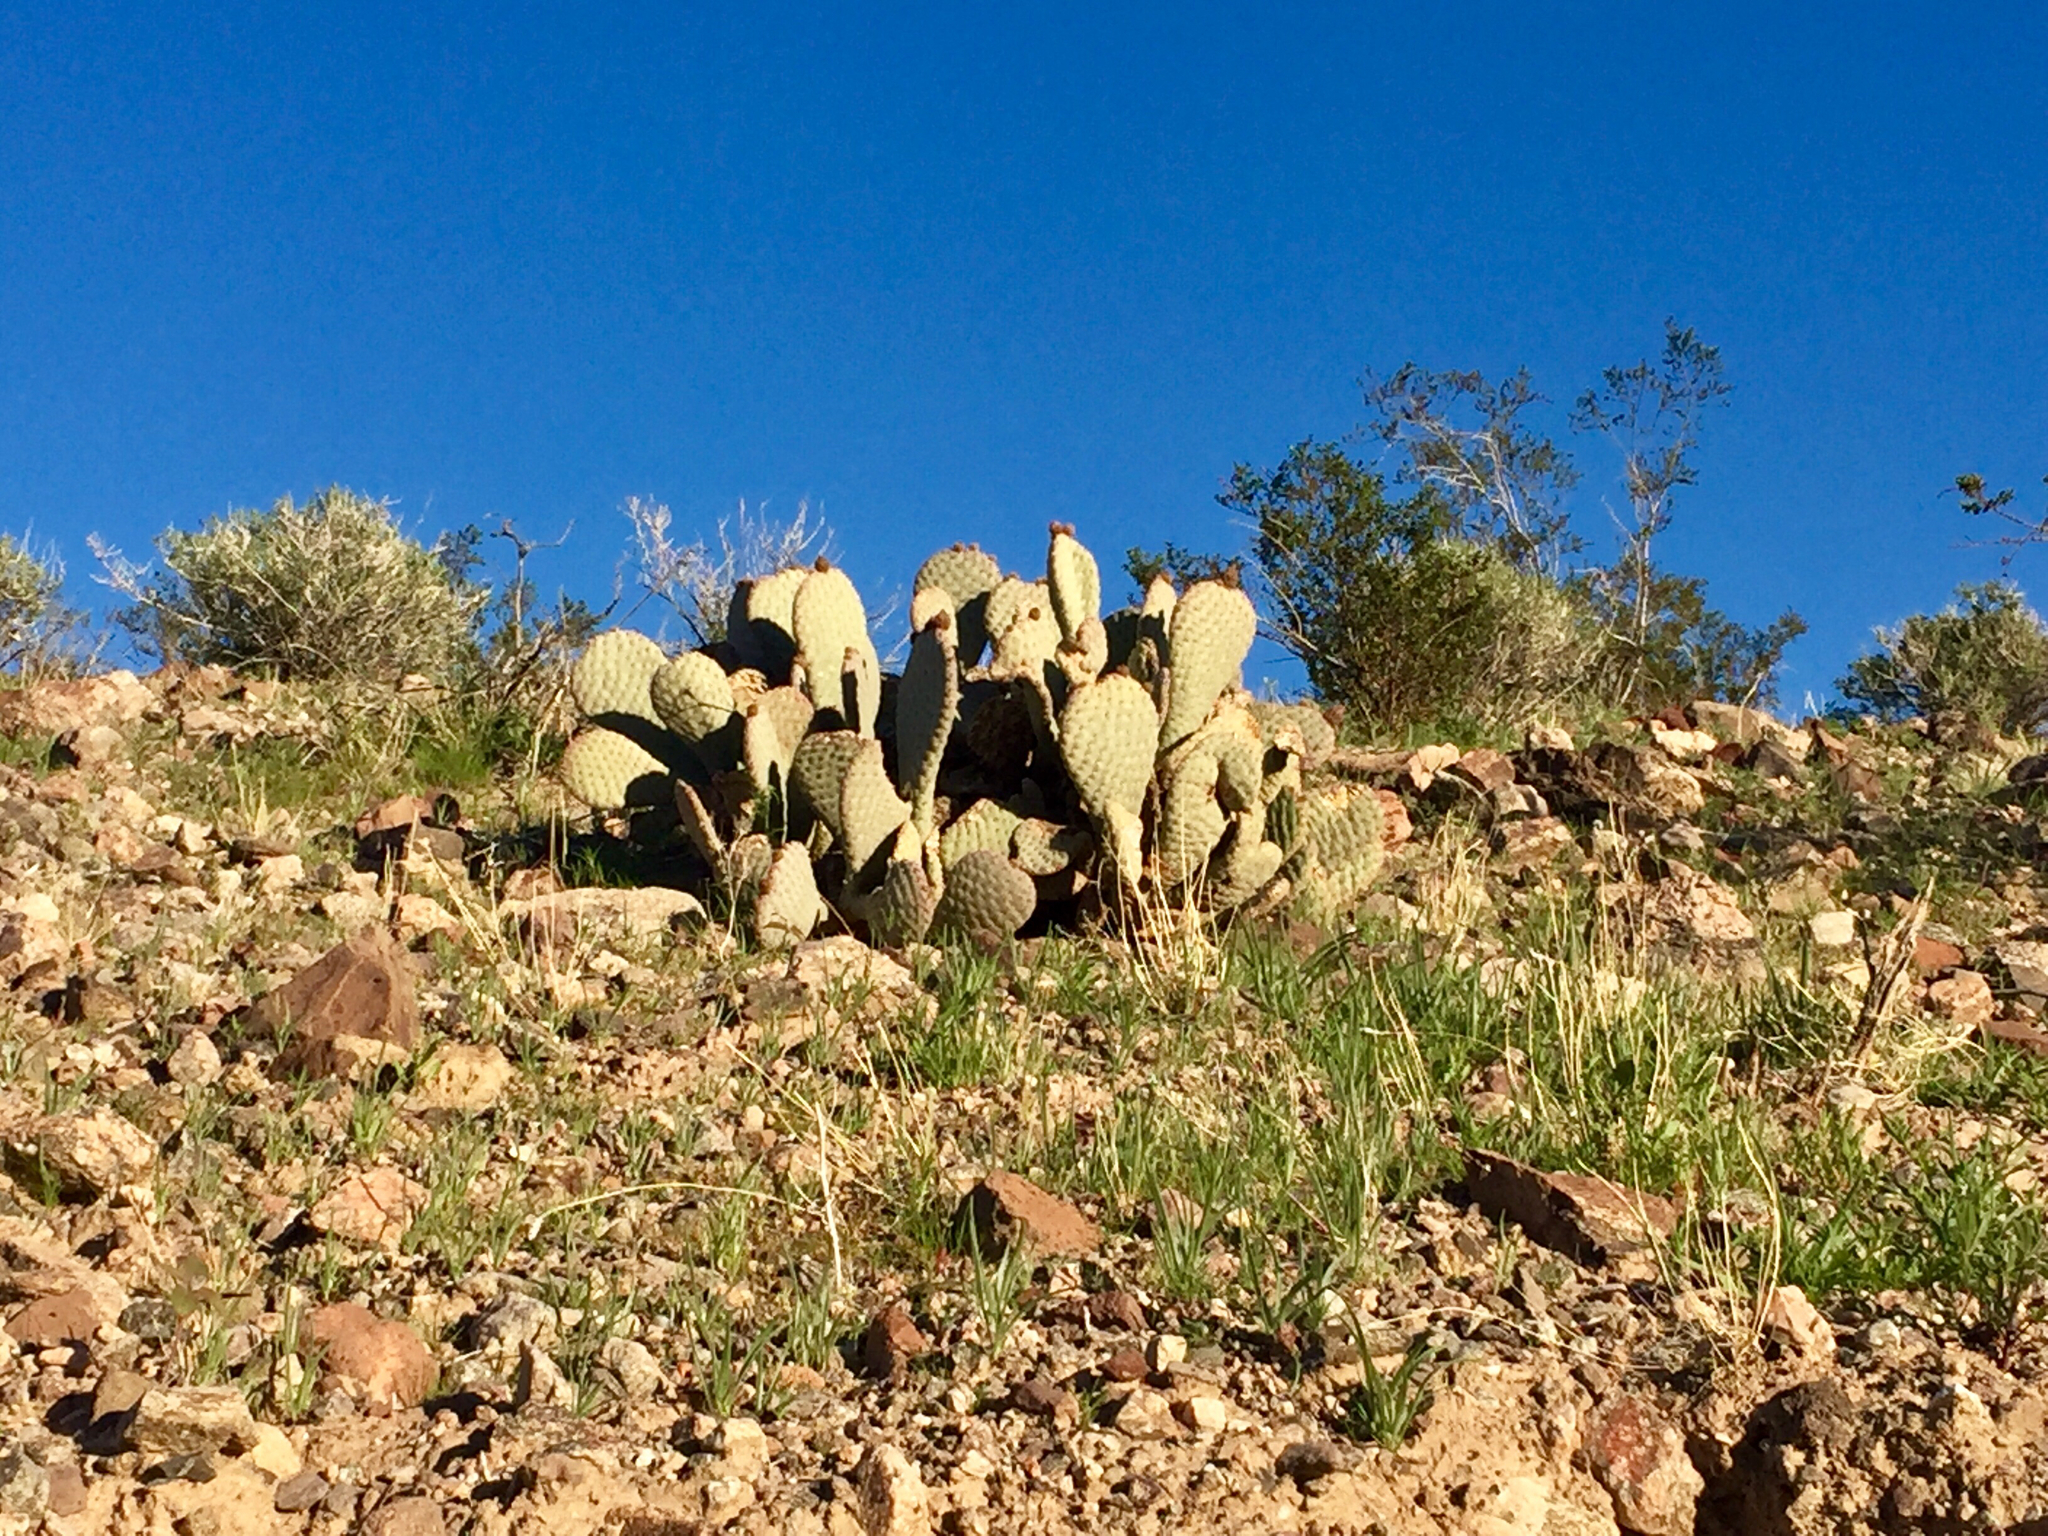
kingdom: Plantae
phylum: Tracheophyta
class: Magnoliopsida
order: Caryophyllales
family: Cactaceae
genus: Opuntia
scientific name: Opuntia basilaris
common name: Beavertail prickly-pear
